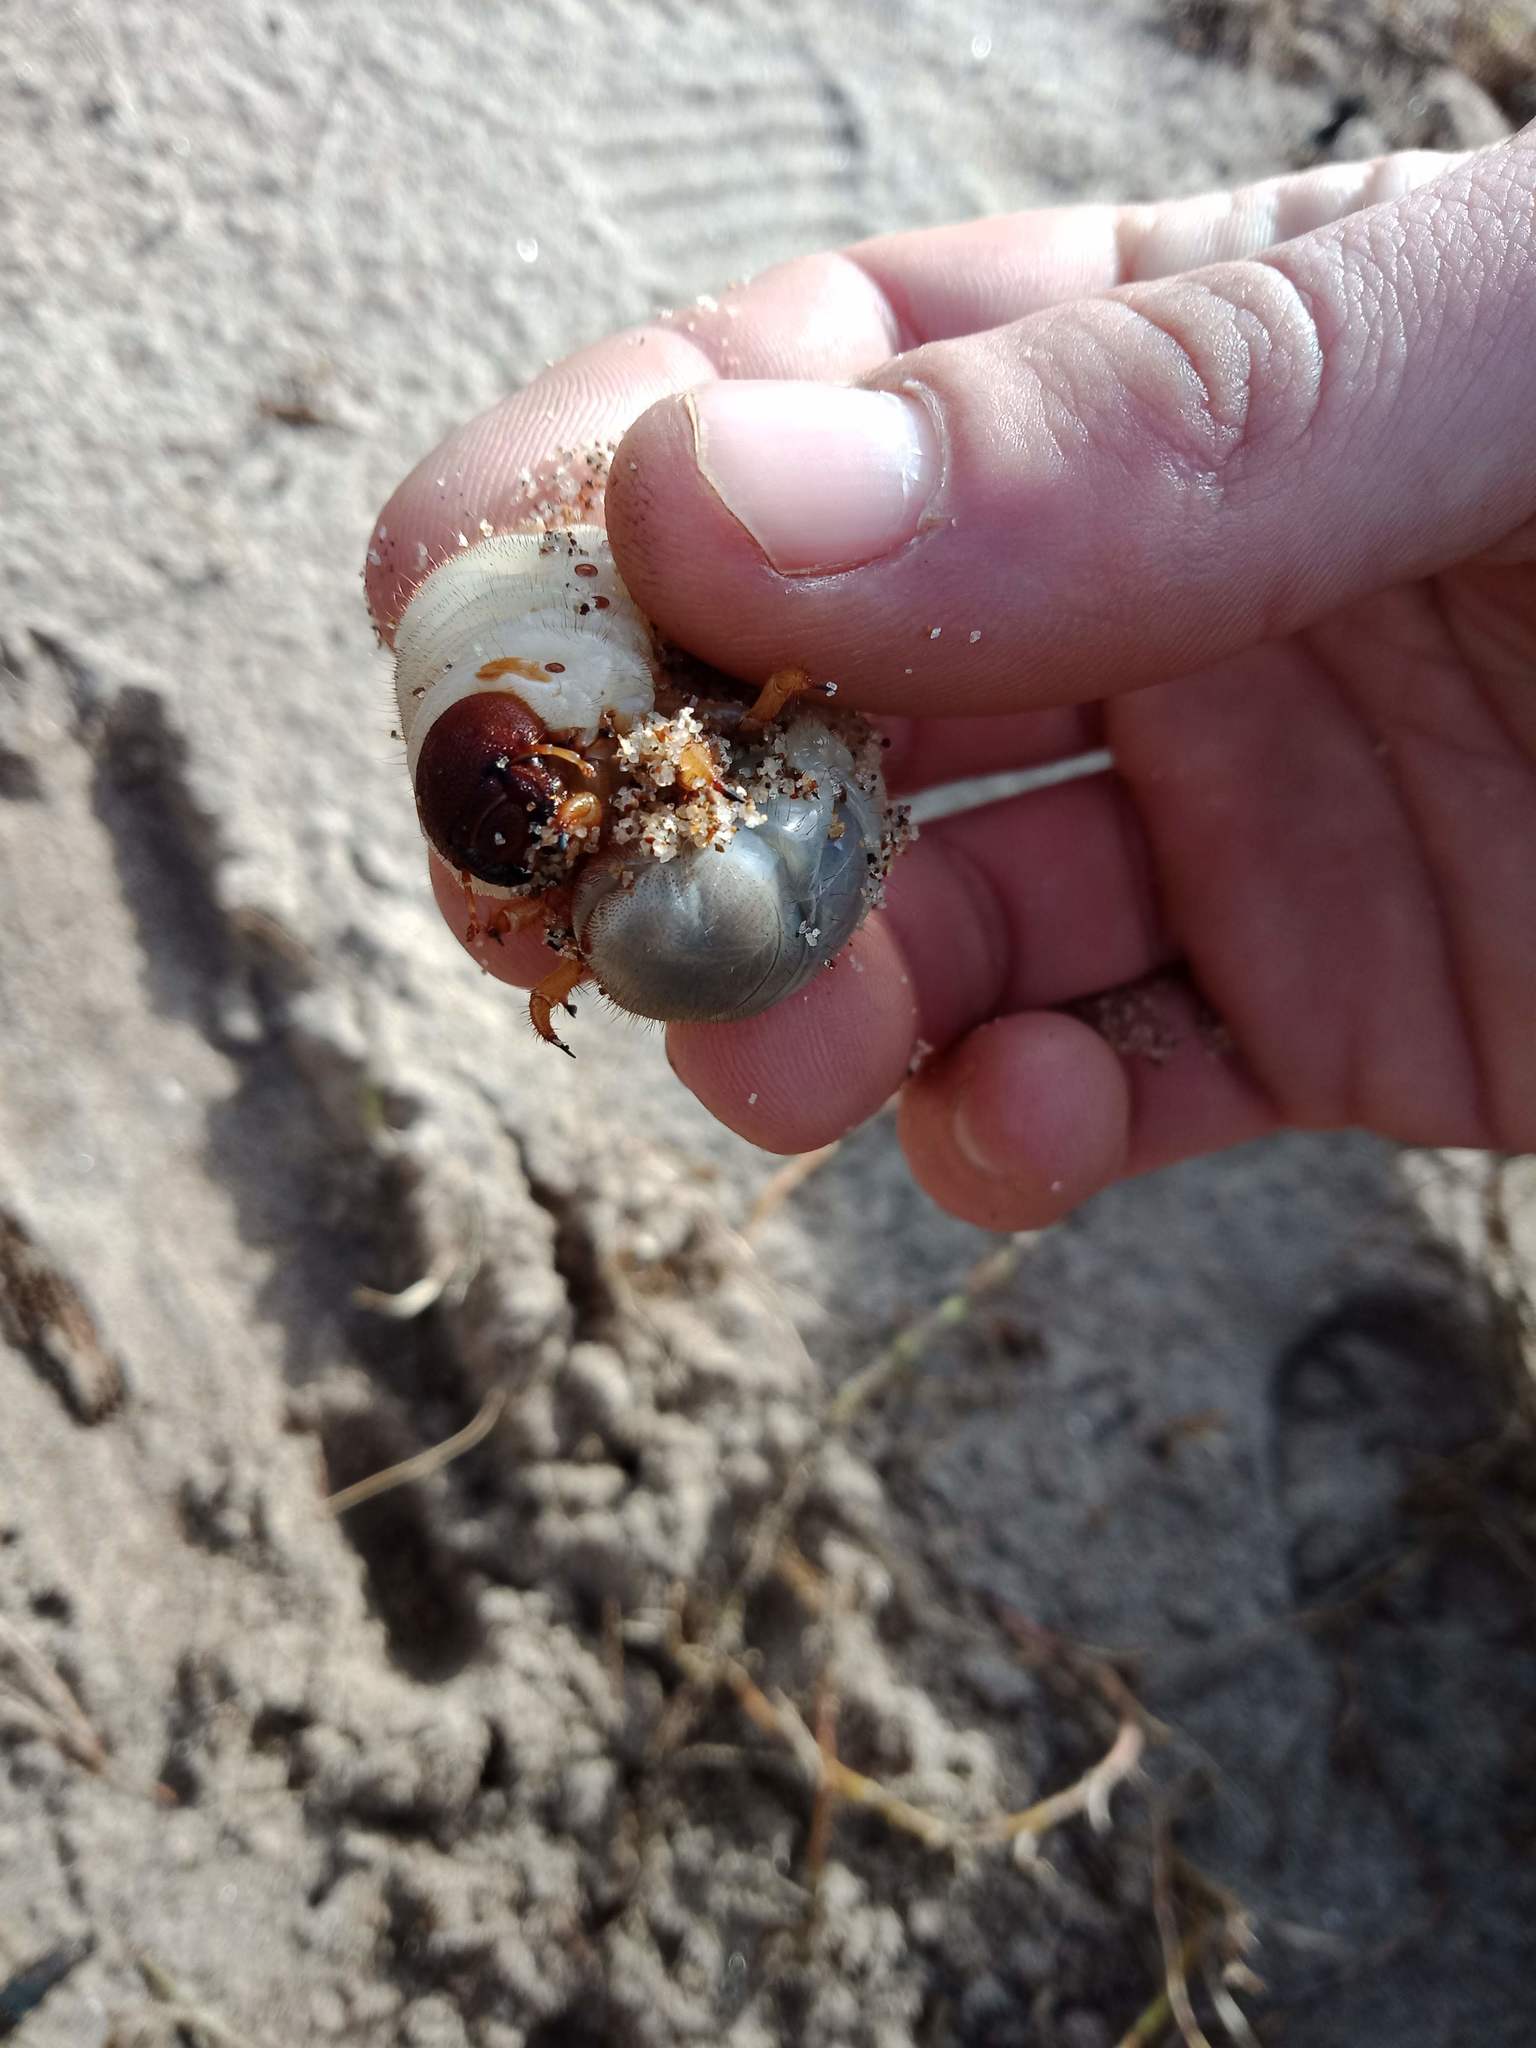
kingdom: Animalia
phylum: Arthropoda
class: Insecta
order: Coleoptera
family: Scarabaeidae
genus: Pericoptus
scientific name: Pericoptus truncatus
